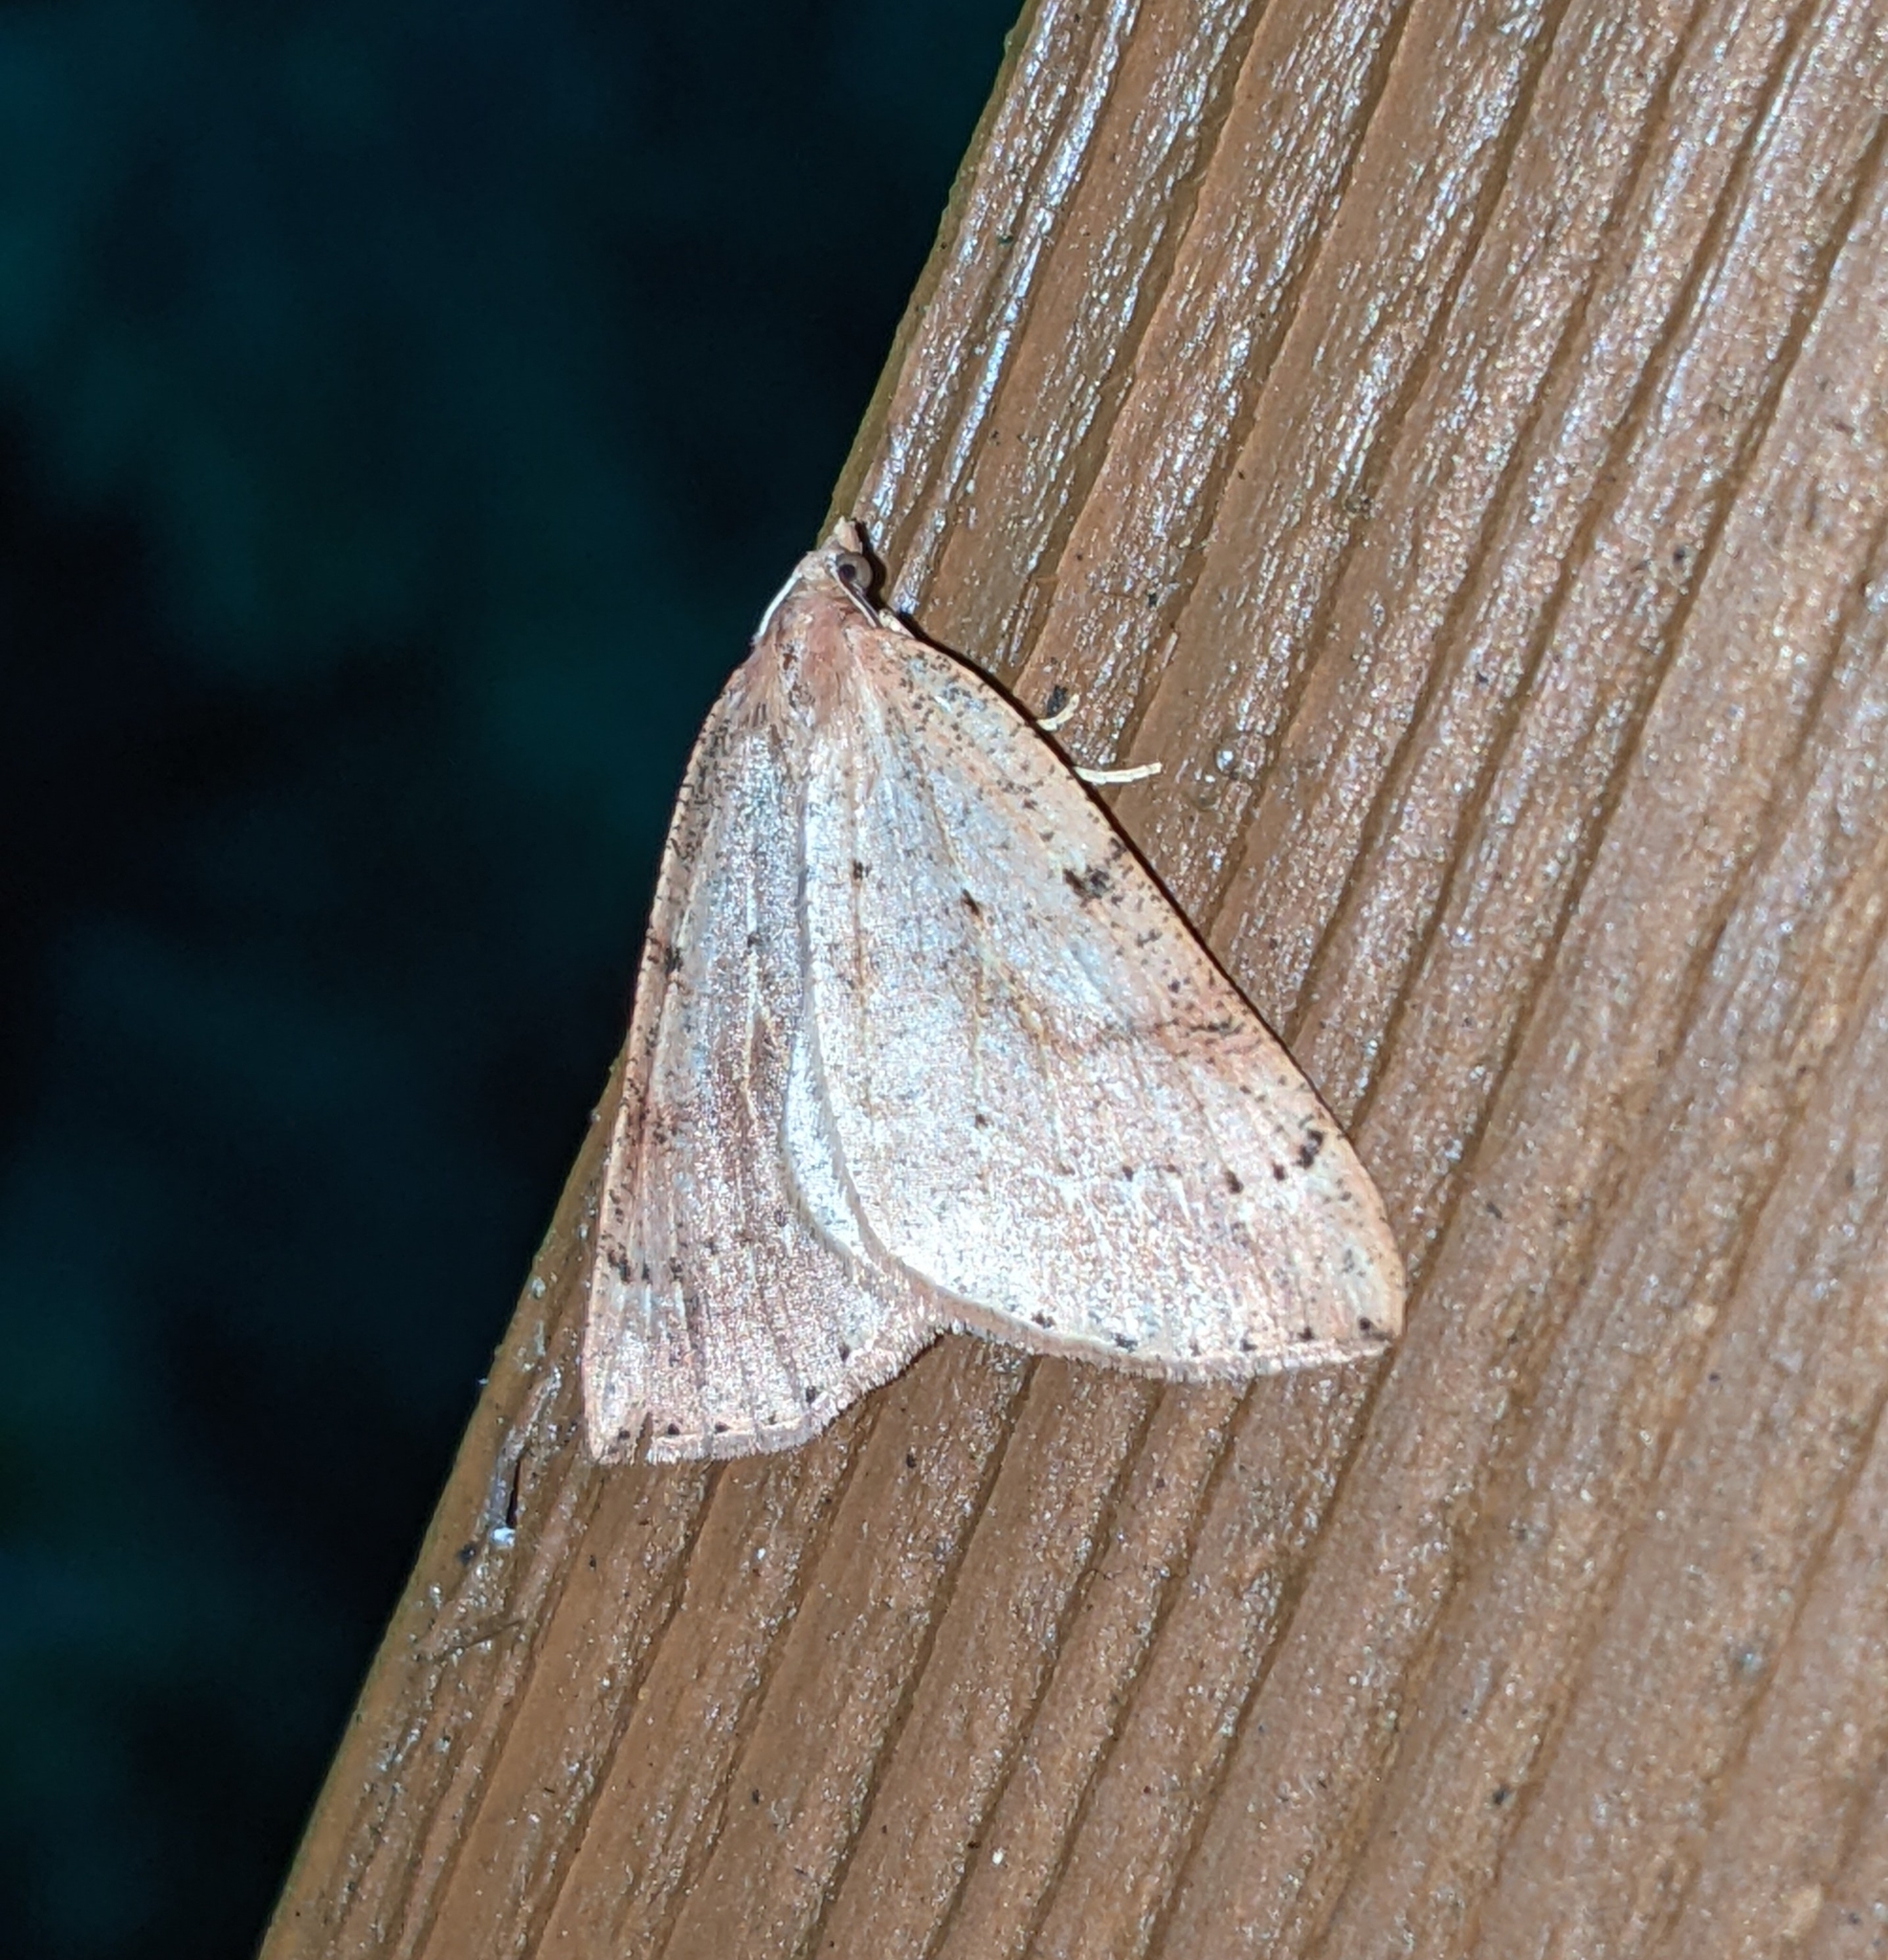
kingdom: Animalia
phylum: Arthropoda
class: Insecta
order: Lepidoptera
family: Geometridae
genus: Thallophaga
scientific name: Thallophaga hyperborea
